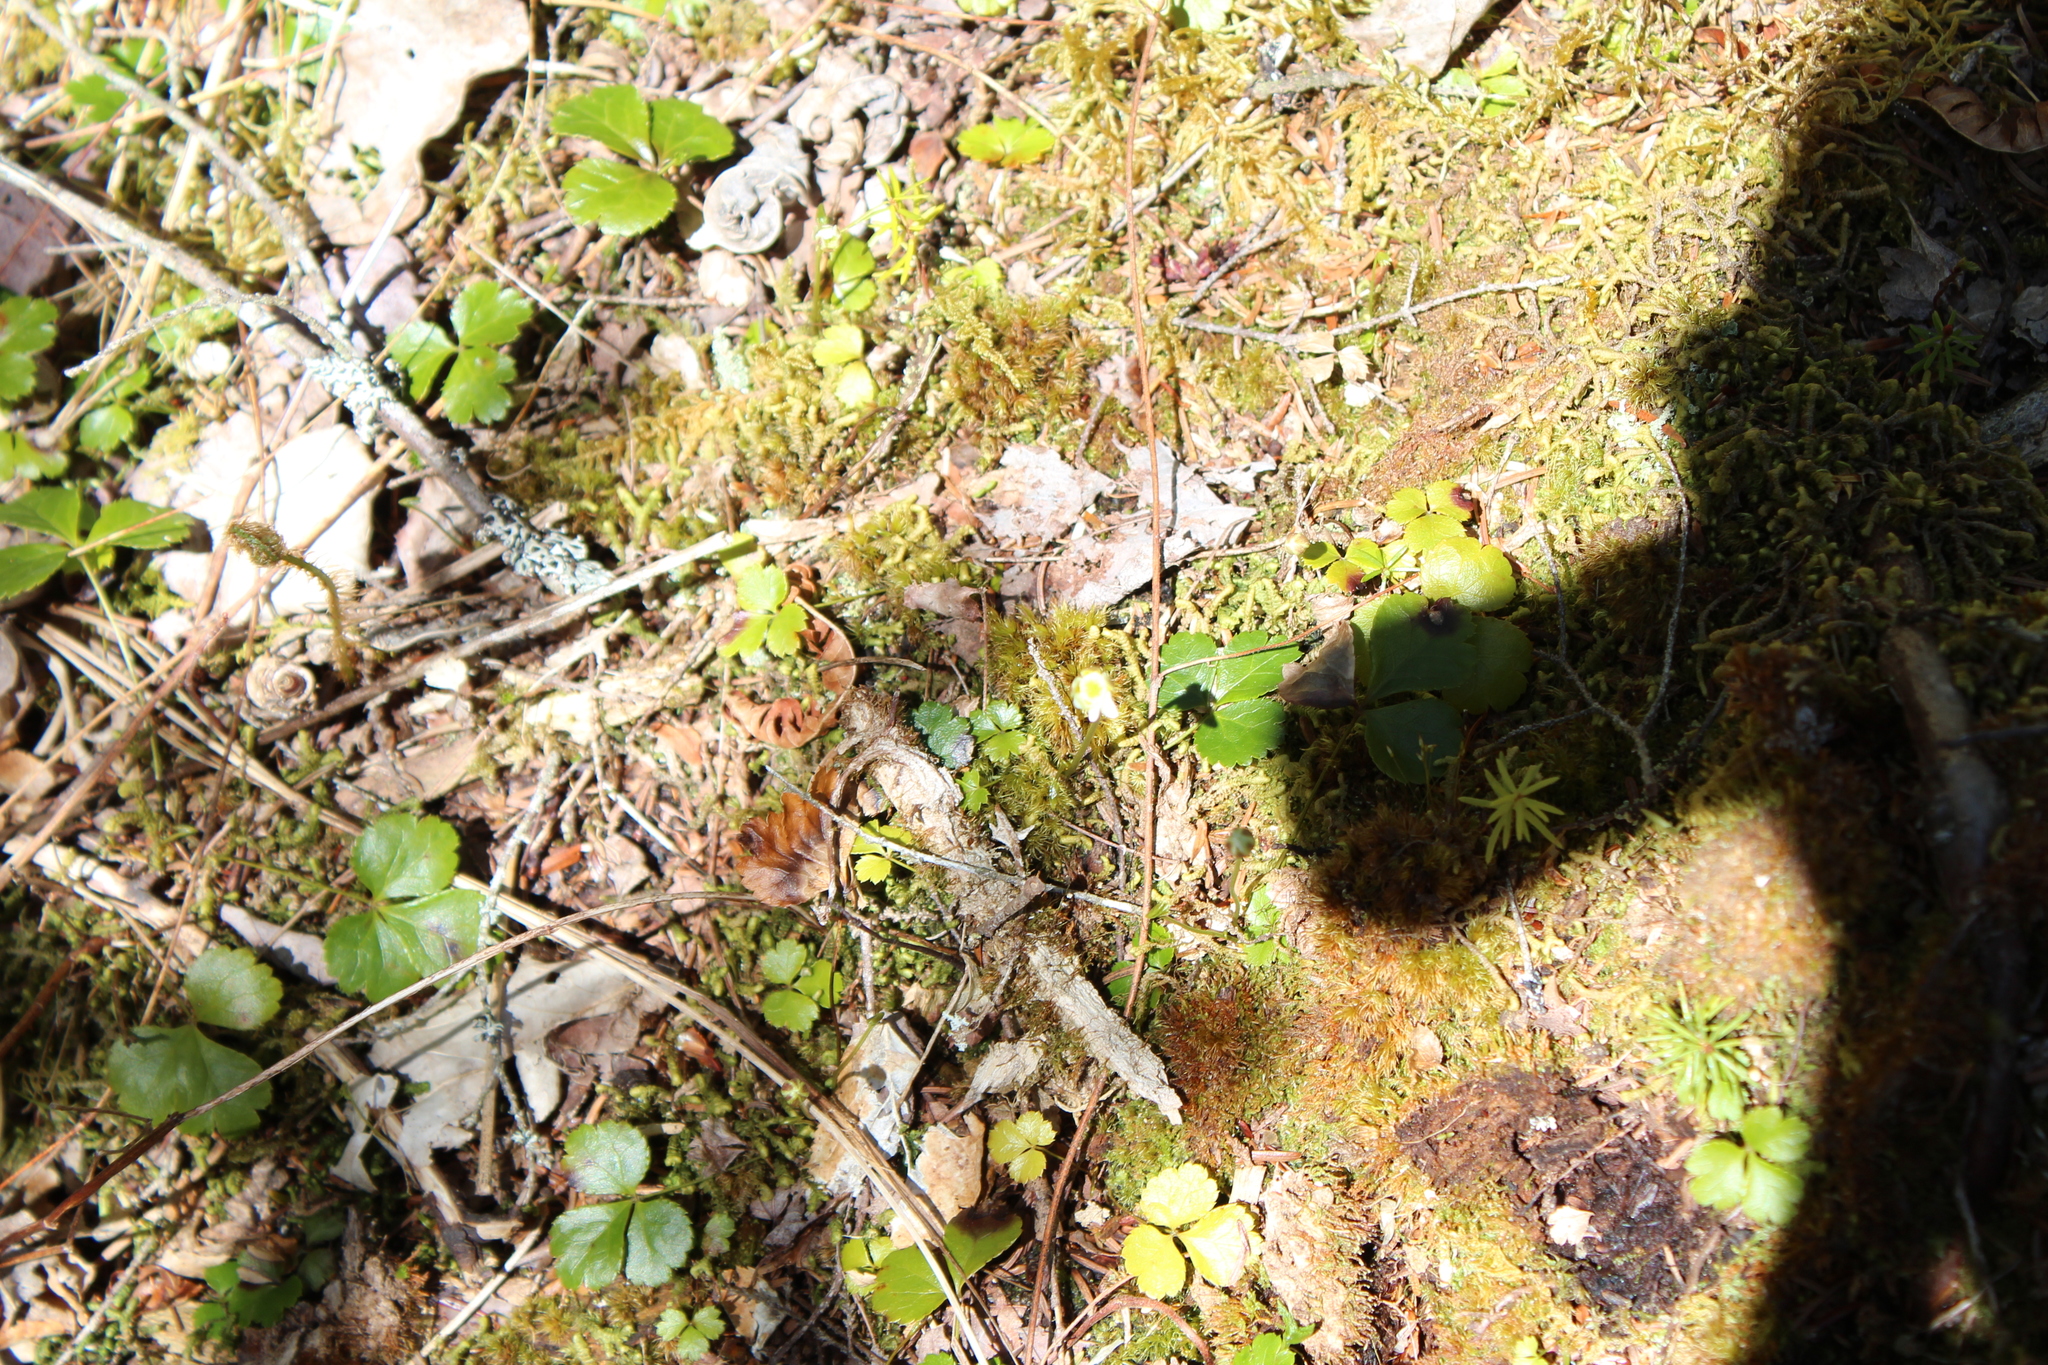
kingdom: Plantae
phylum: Tracheophyta
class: Magnoliopsida
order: Ranunculales
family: Ranunculaceae
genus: Coptis
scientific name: Coptis trifolia
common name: Canker-root
